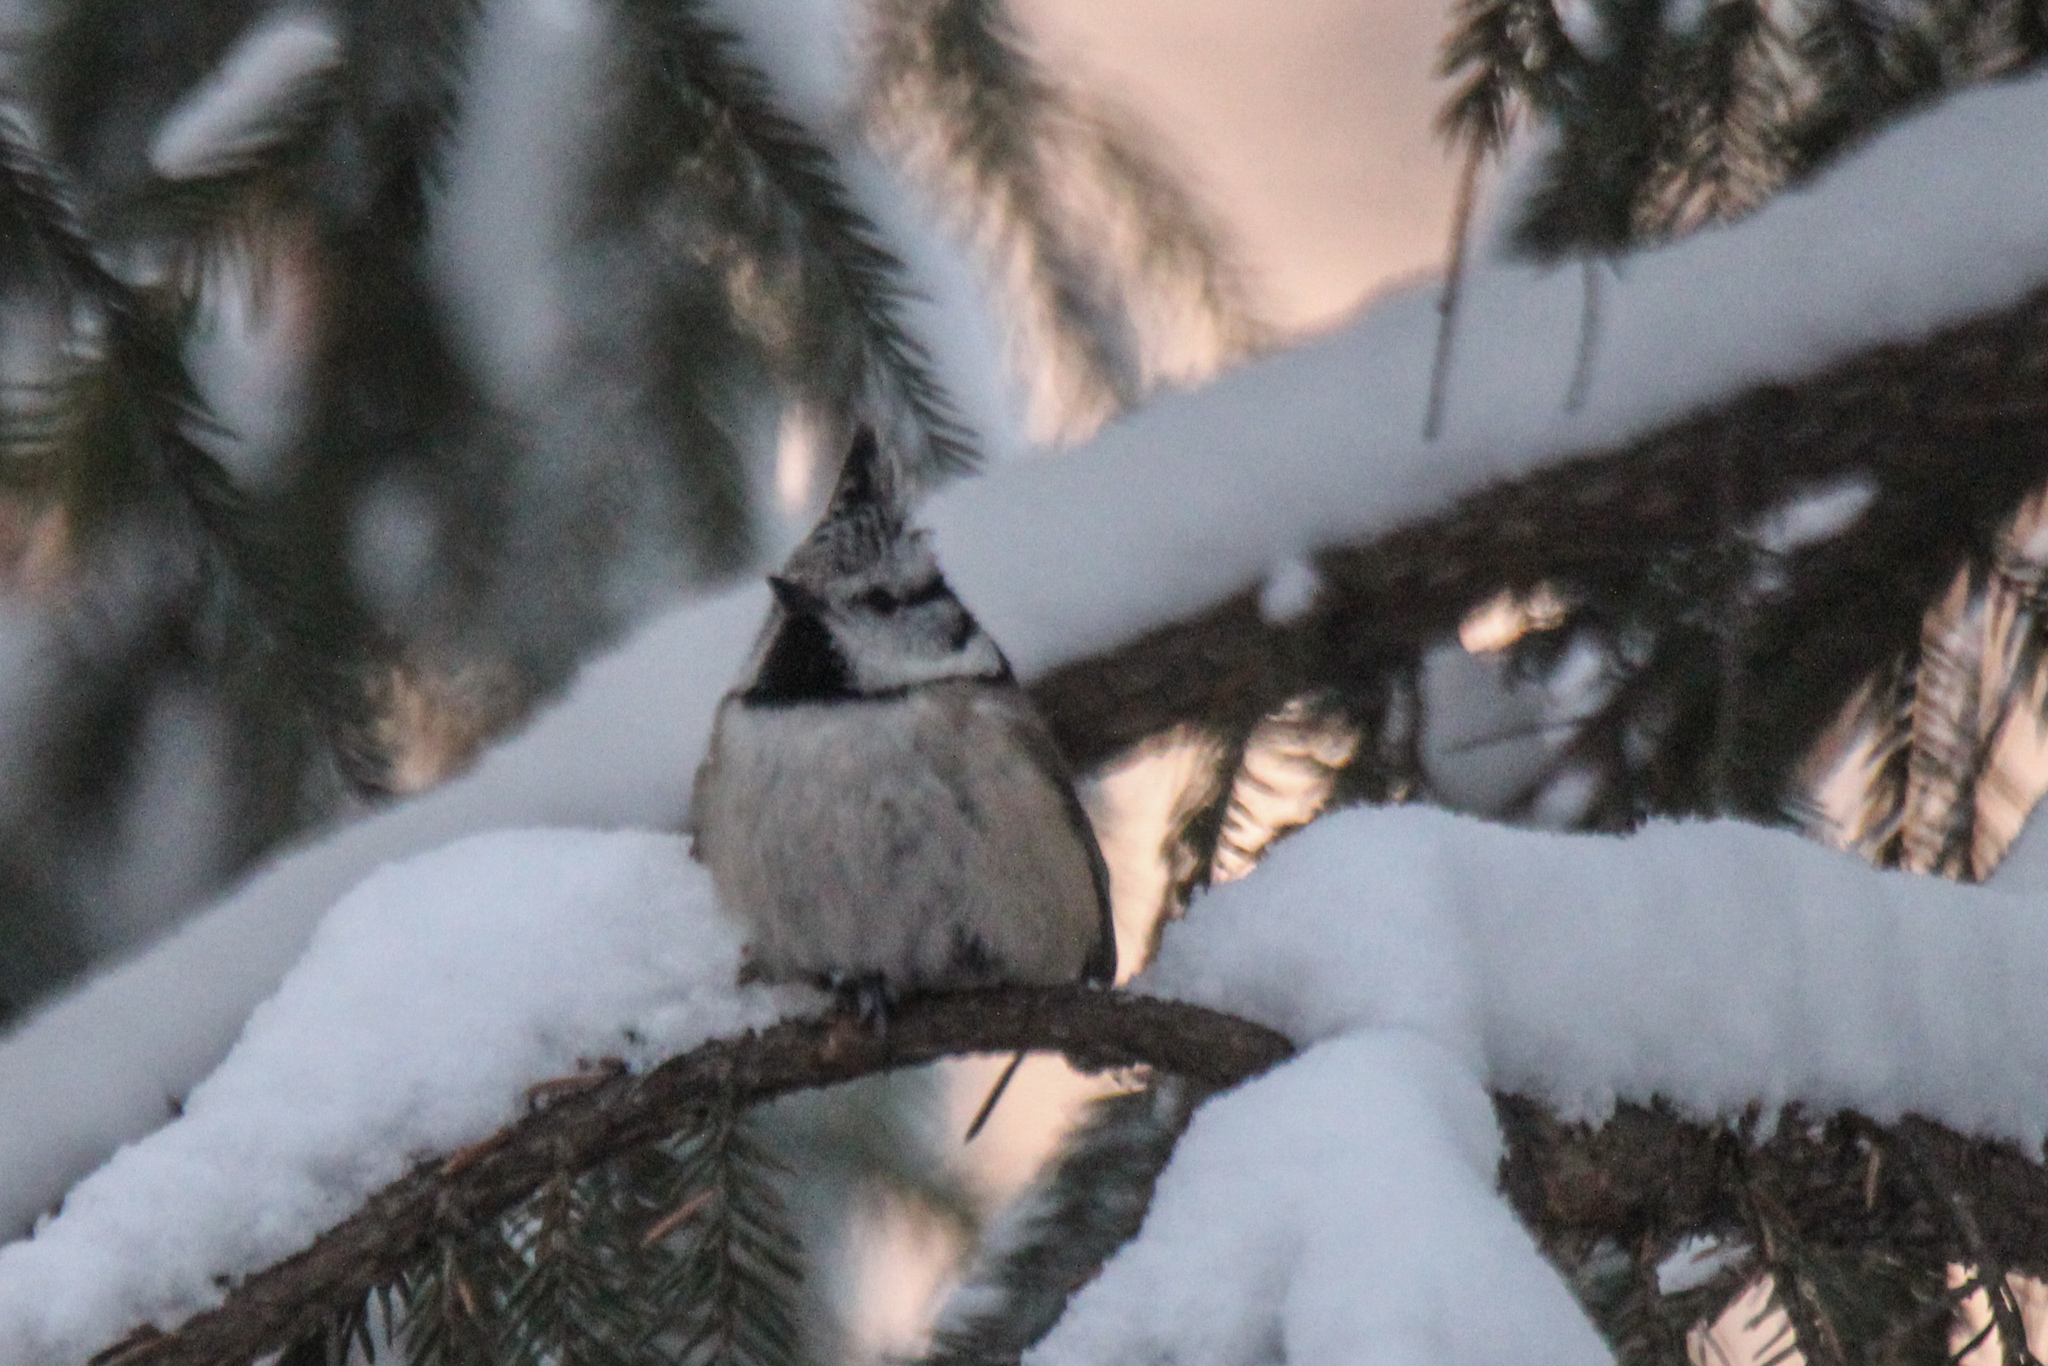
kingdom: Animalia
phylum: Chordata
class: Aves
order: Passeriformes
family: Paridae
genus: Lophophanes
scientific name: Lophophanes cristatus
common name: European crested tit
